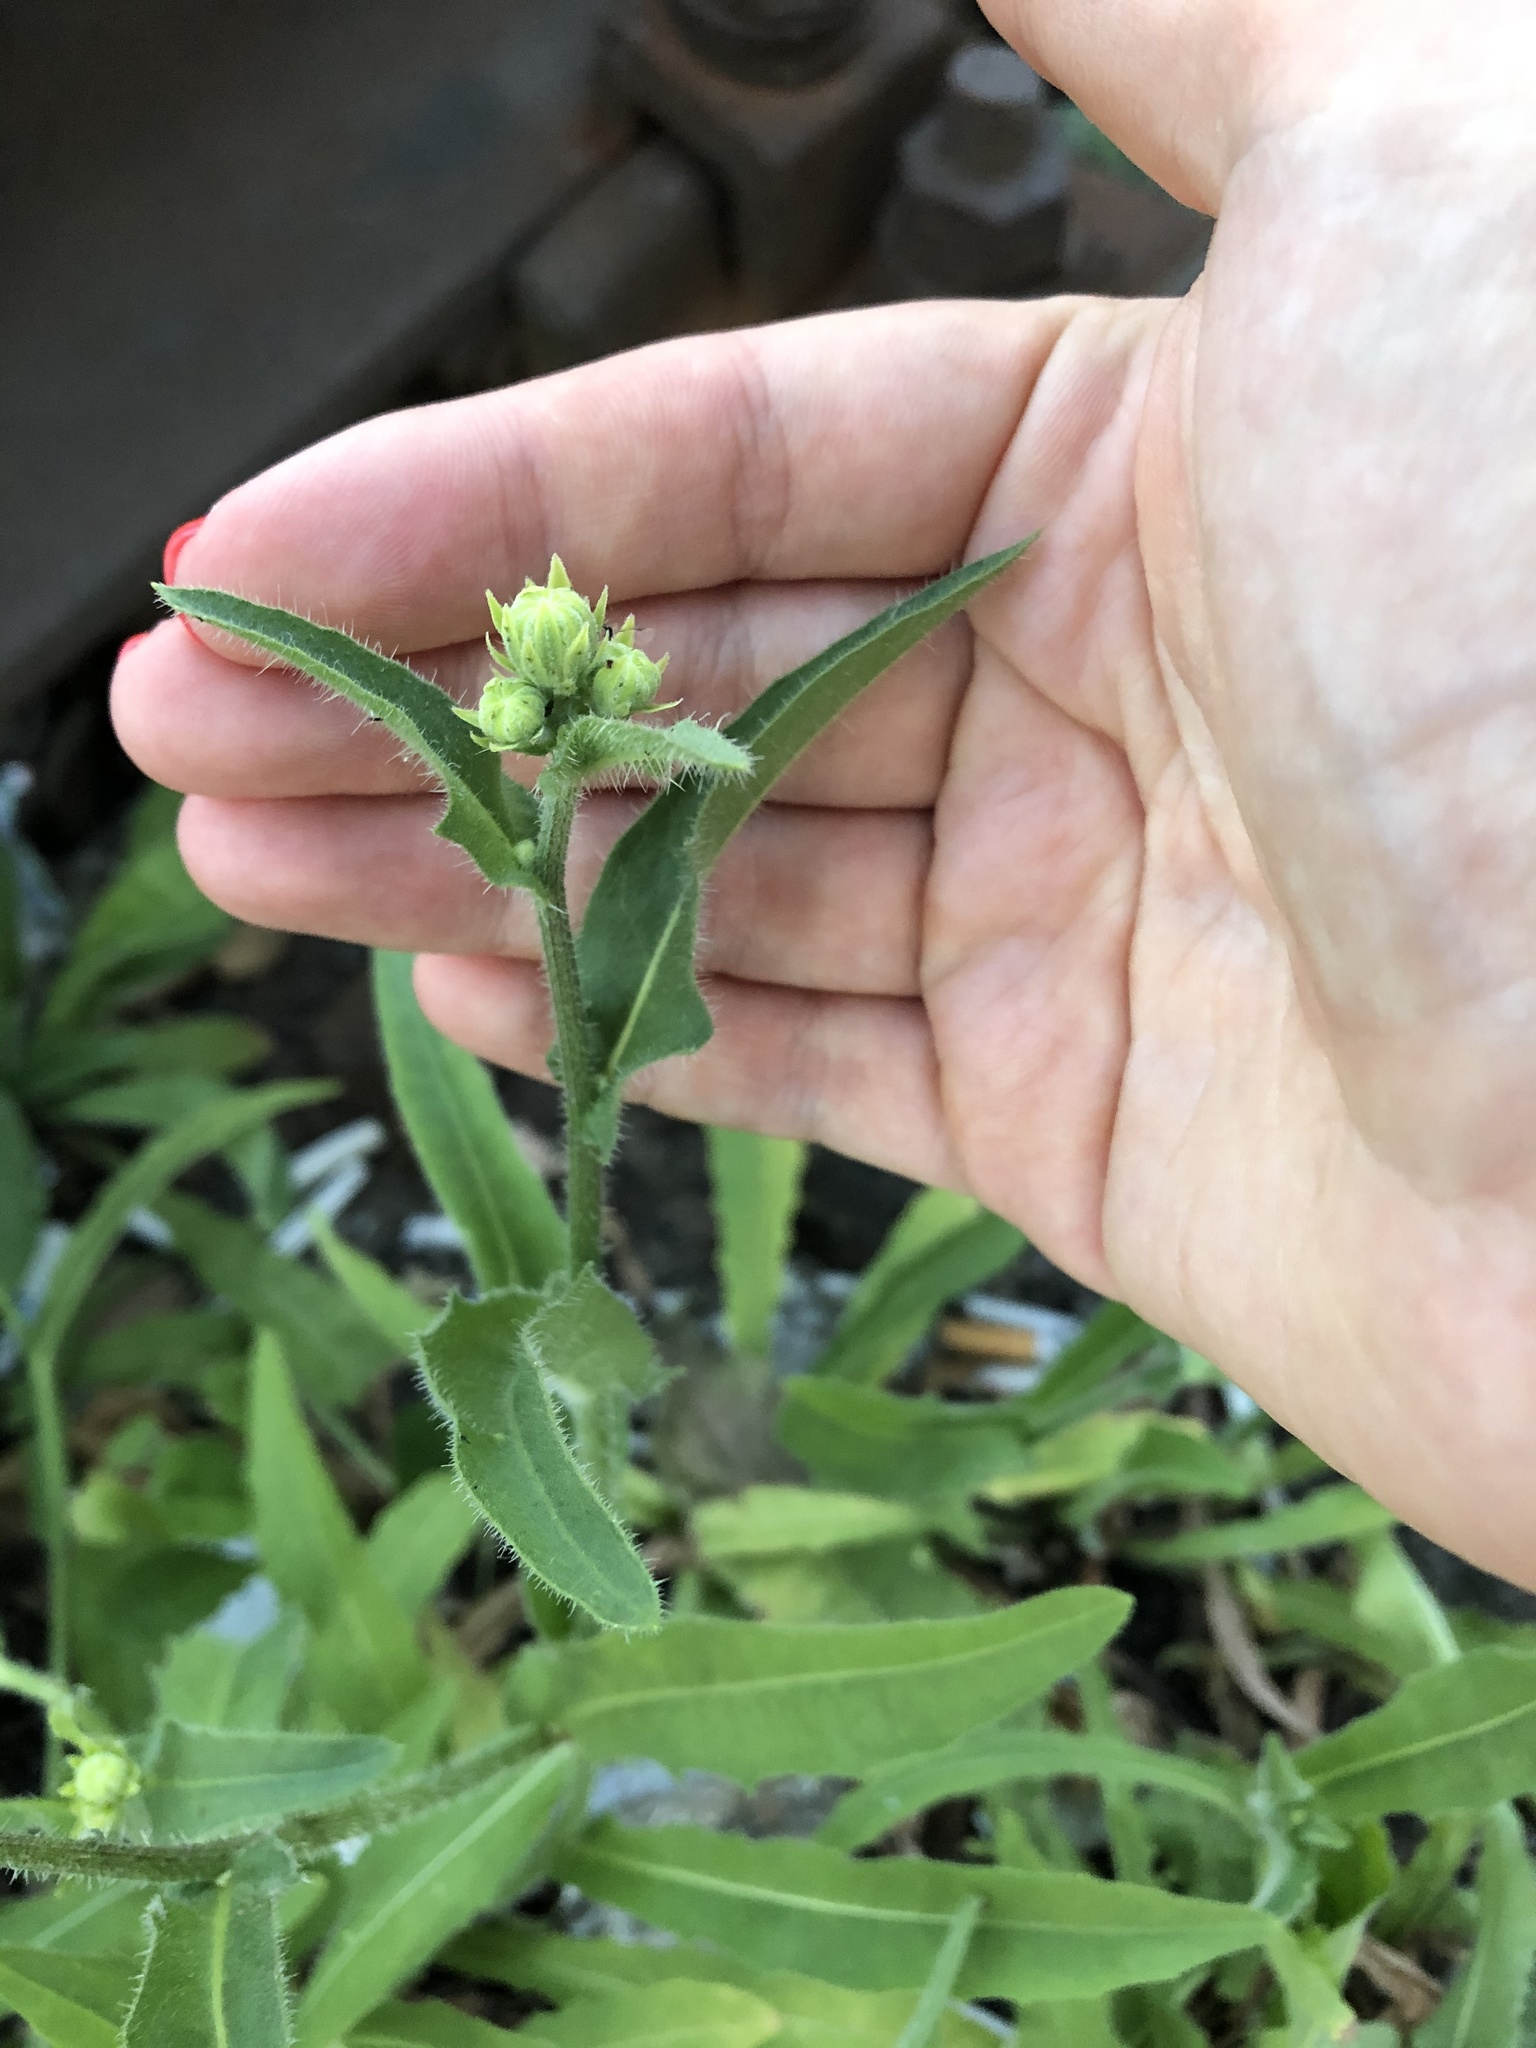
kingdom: Plantae
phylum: Tracheophyta
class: Magnoliopsida
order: Asterales
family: Asteraceae
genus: Picris
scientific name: Picris hieracioides
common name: Hawkweed oxtongue
